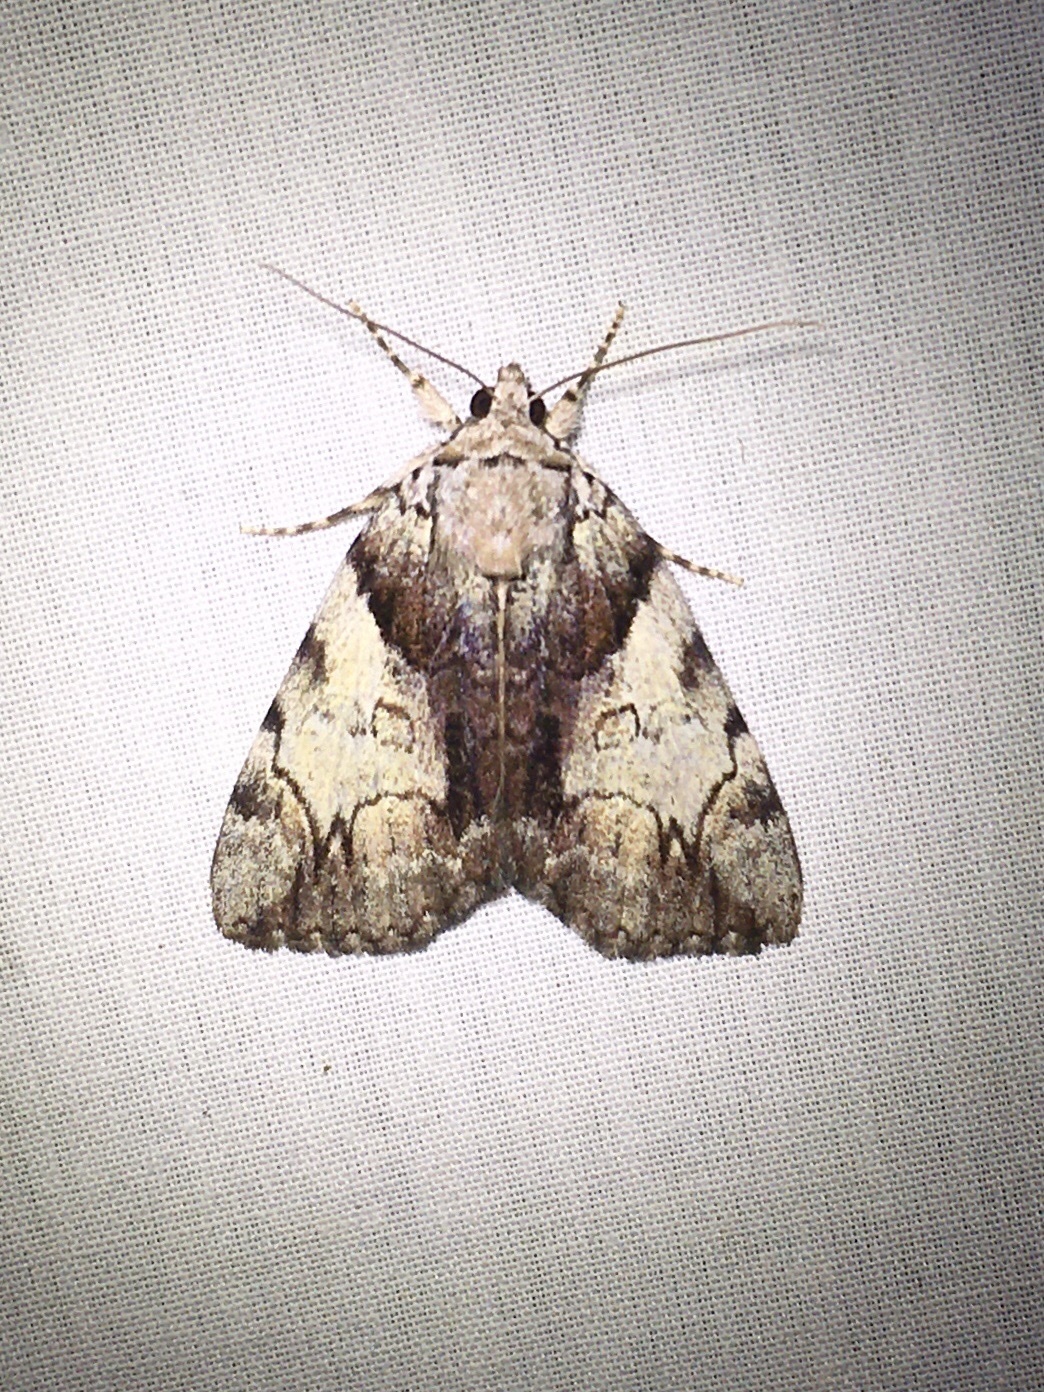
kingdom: Animalia
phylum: Arthropoda
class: Insecta
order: Lepidoptera
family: Erebidae
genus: Catocala
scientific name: Catocala crataegi
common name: Hawthorn underwing moth
